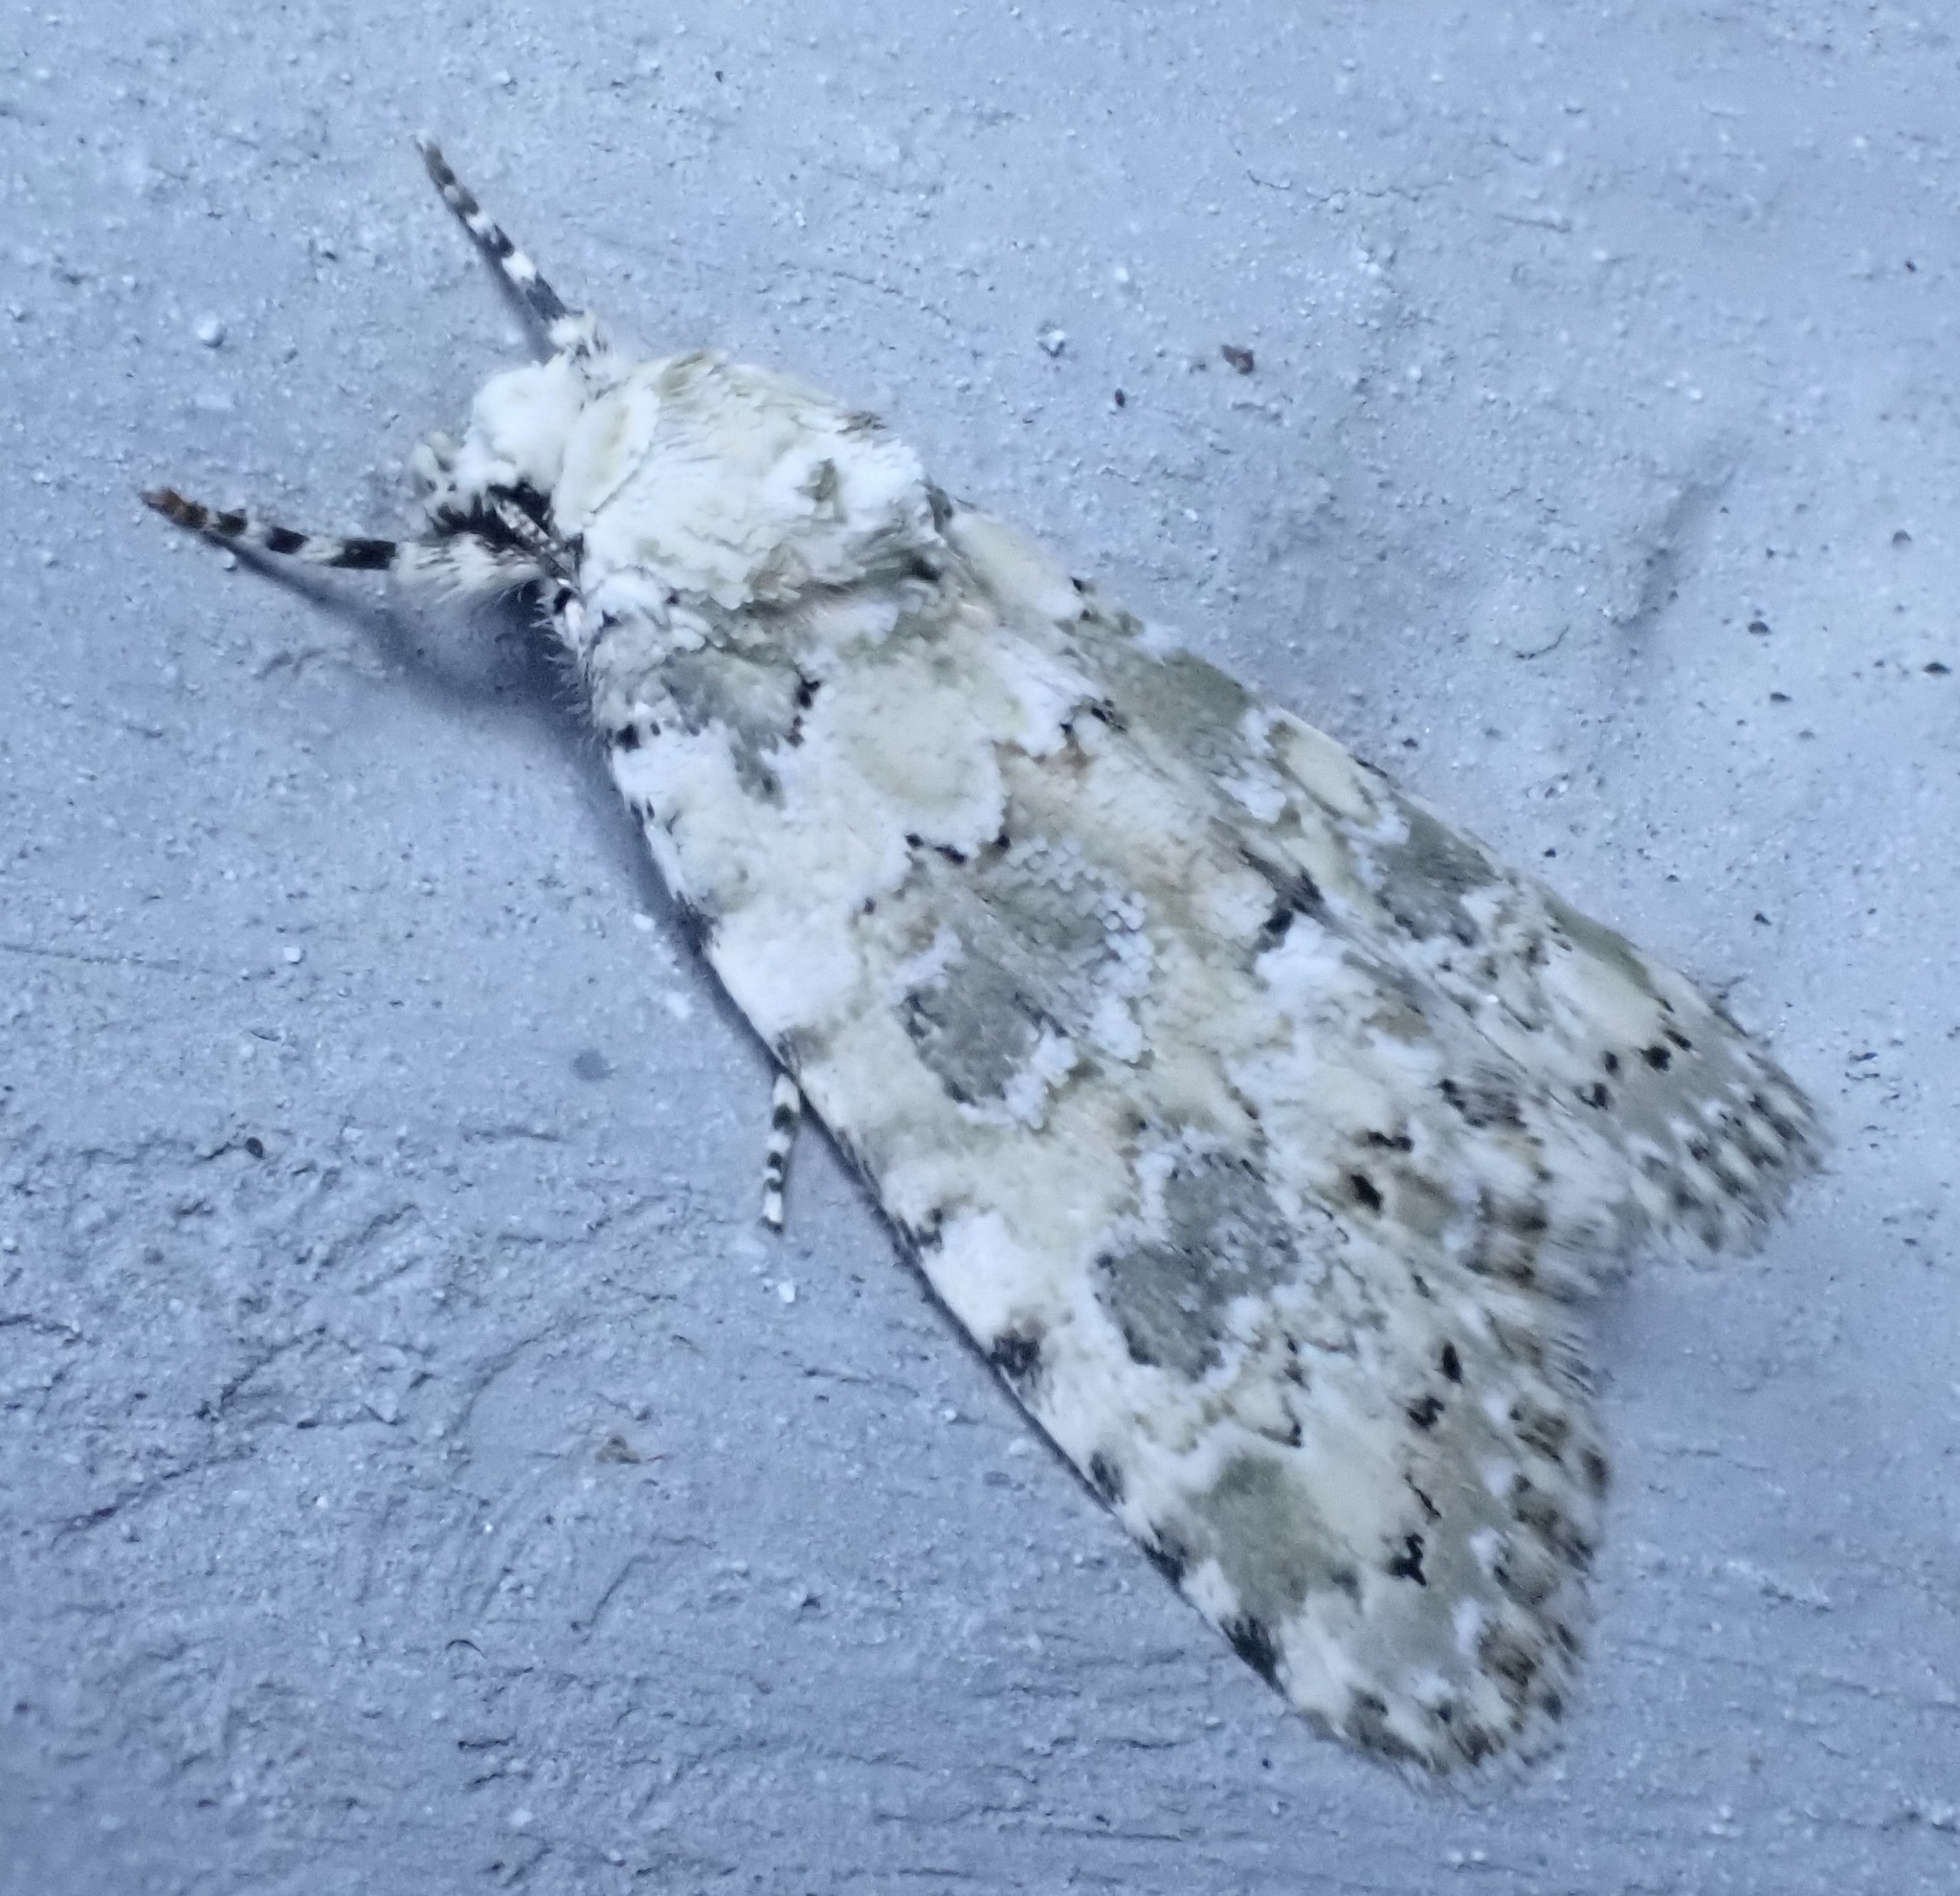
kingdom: Animalia
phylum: Arthropoda
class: Insecta
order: Lepidoptera
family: Noctuidae
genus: Bryophila
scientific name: Bryophila domestica
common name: Marbled beauty
